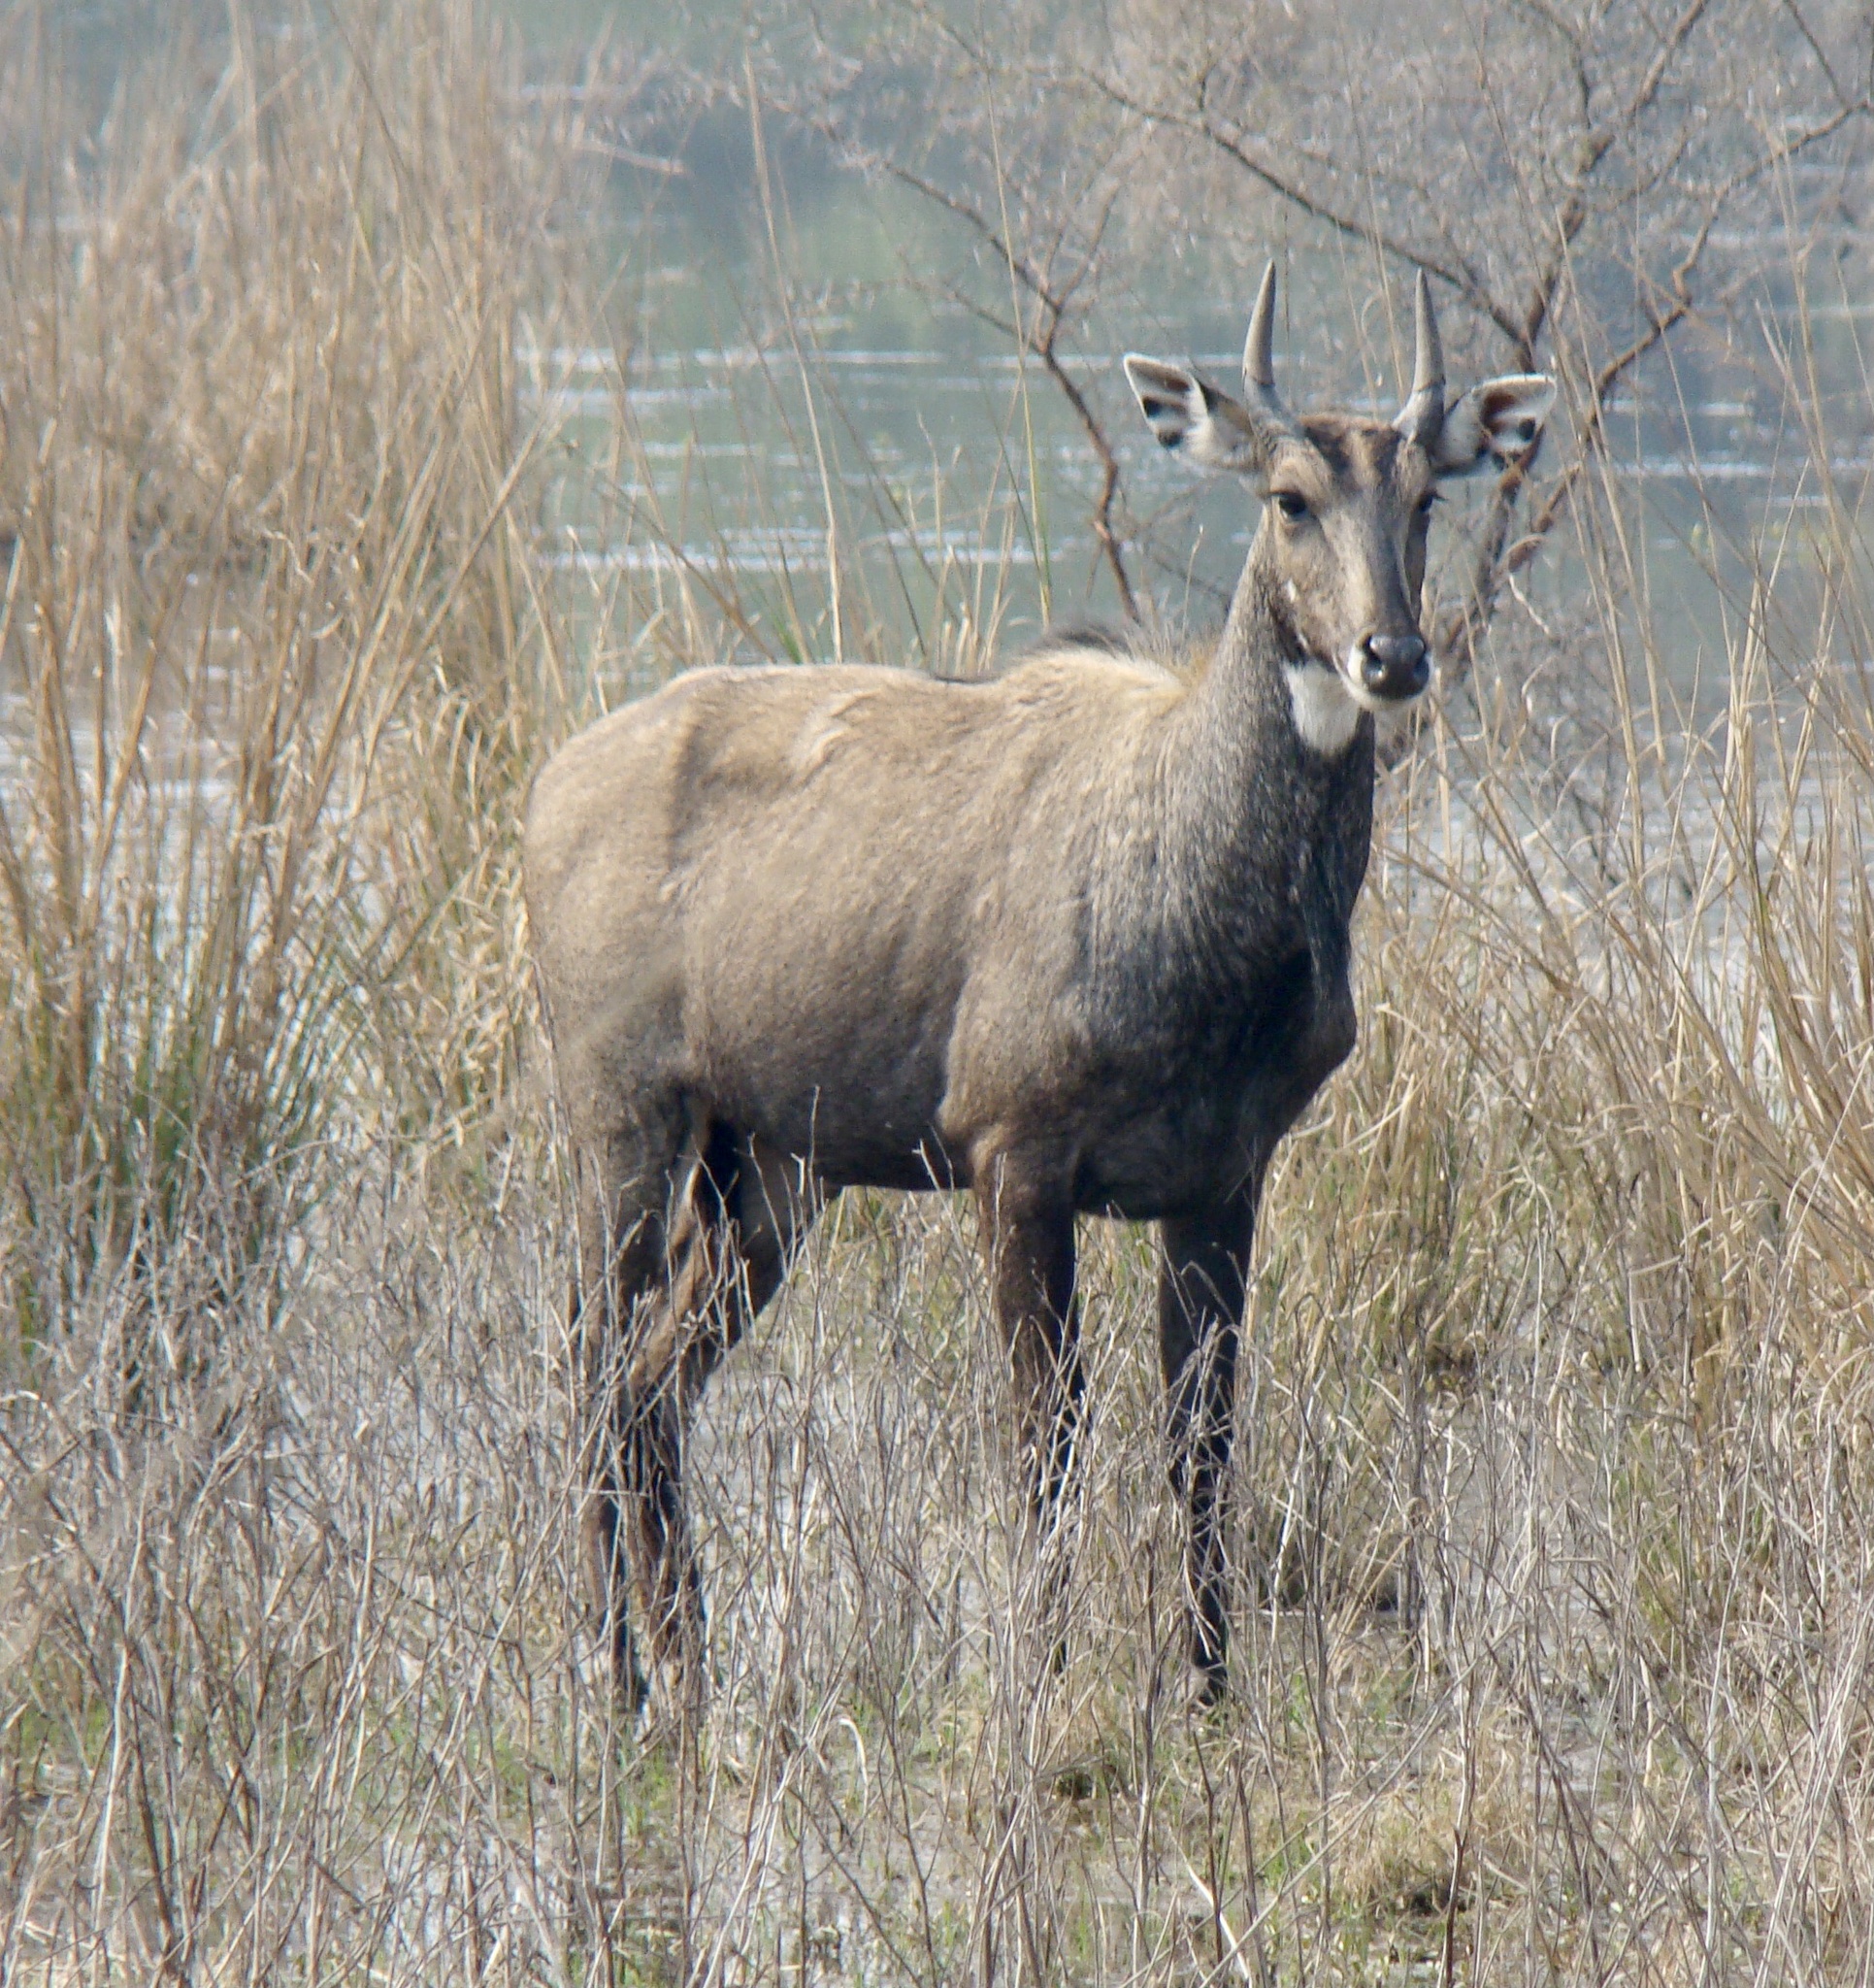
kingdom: Animalia
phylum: Chordata
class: Mammalia
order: Artiodactyla
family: Bovidae
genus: Boselaphus
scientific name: Boselaphus tragocamelus
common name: Nilgai
